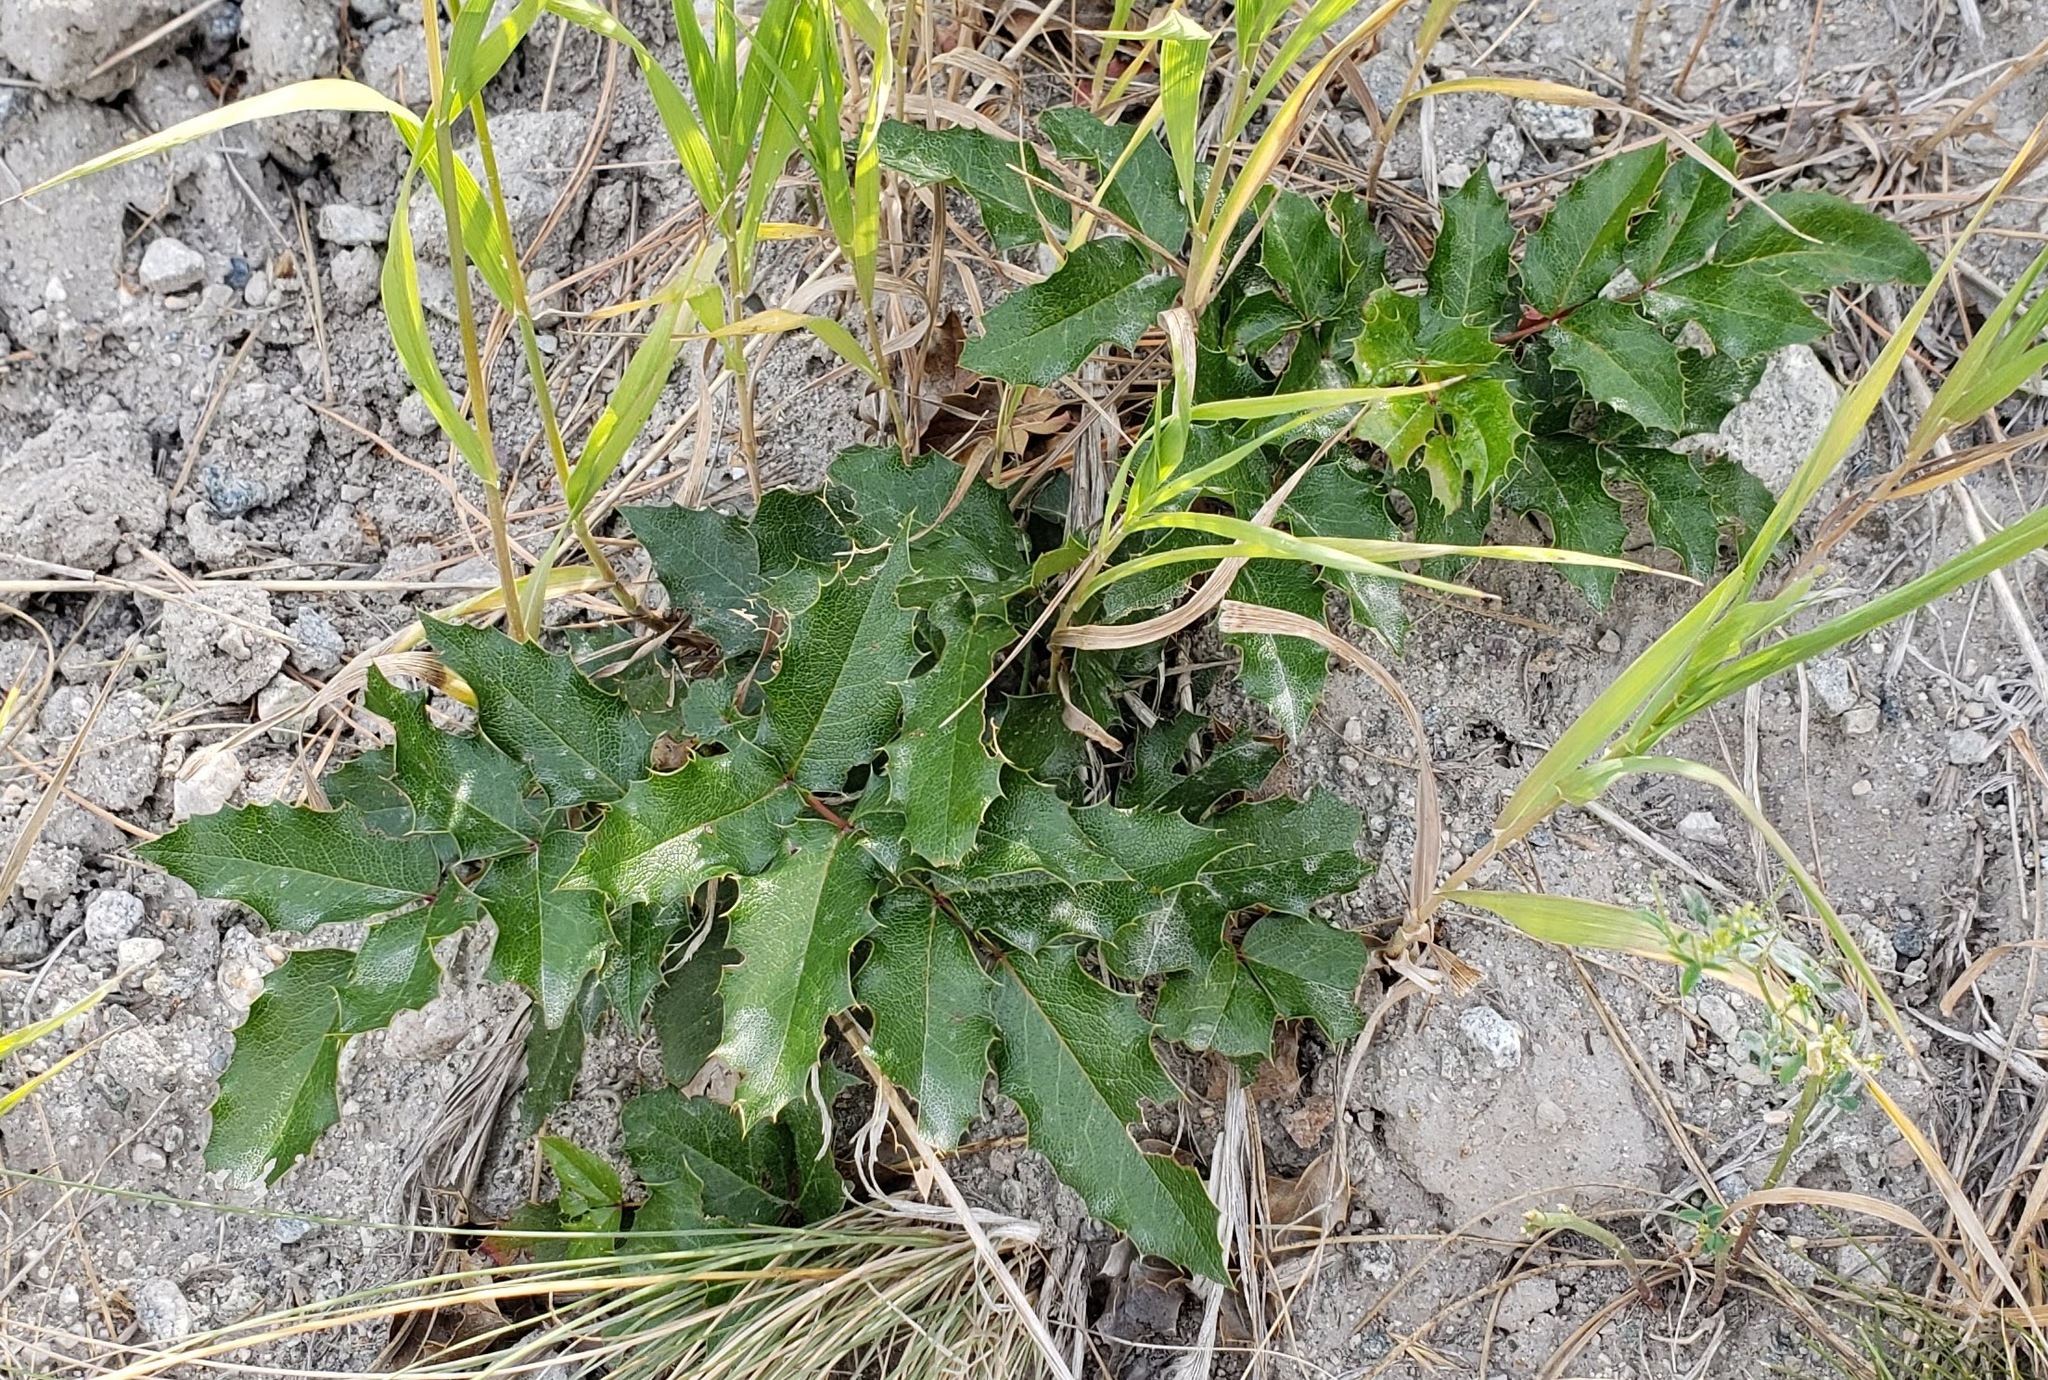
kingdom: Plantae
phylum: Tracheophyta
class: Magnoliopsida
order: Ranunculales
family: Berberidaceae
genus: Mahonia
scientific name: Mahonia aquifolium
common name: Oregon-grape
